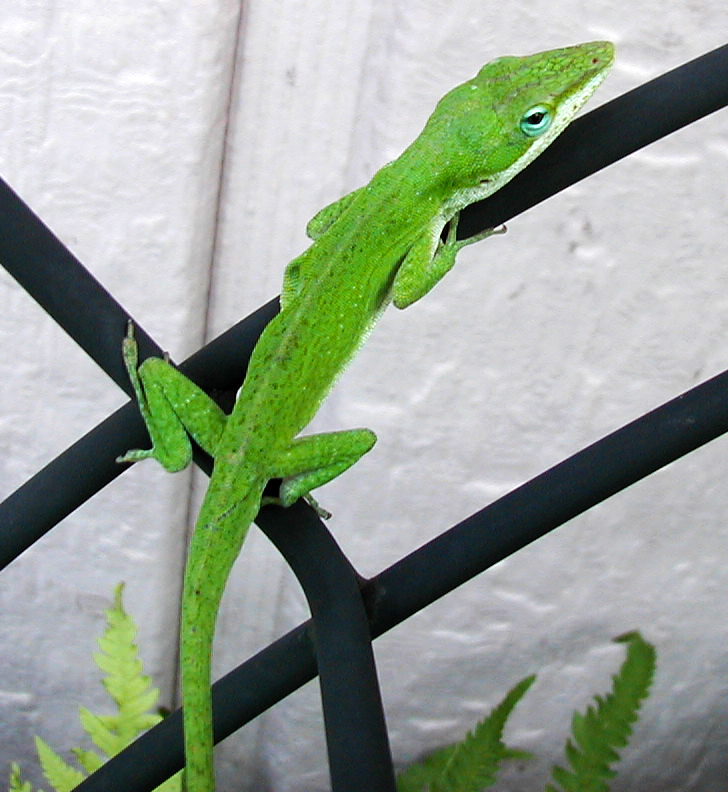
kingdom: Animalia
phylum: Chordata
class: Squamata
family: Dactyloidae
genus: Anolis
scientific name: Anolis carolinensis
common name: Green anole
